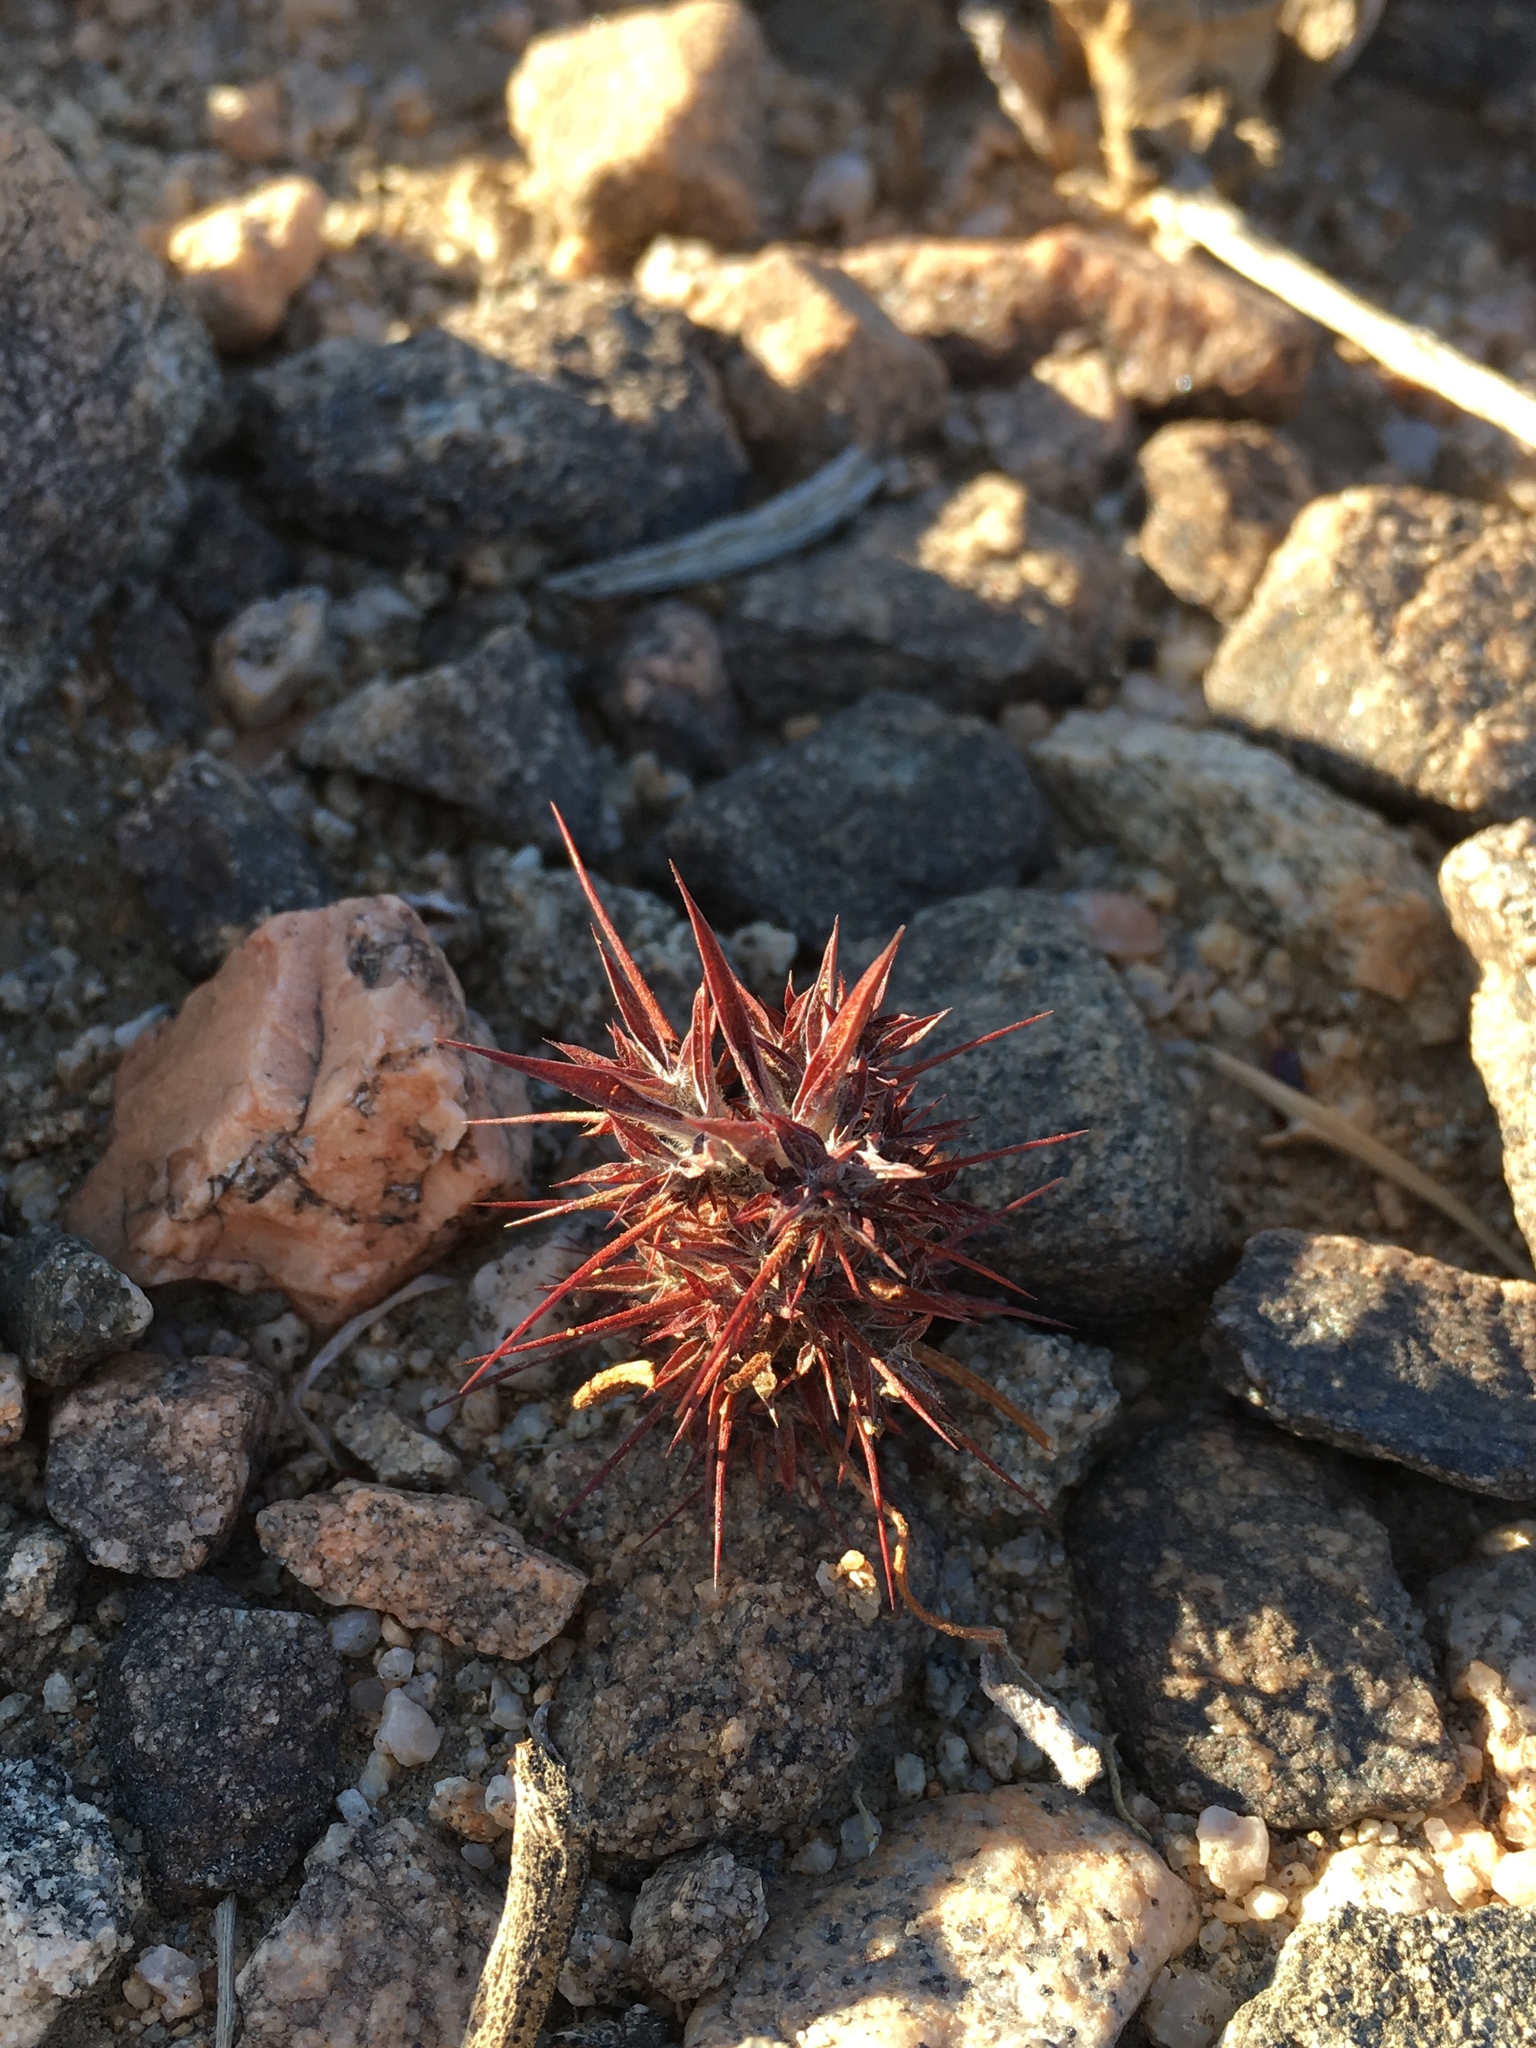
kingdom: Plantae
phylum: Tracheophyta
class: Magnoliopsida
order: Caryophyllales
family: Polygonaceae
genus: Chorizanthe
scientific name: Chorizanthe rigida
